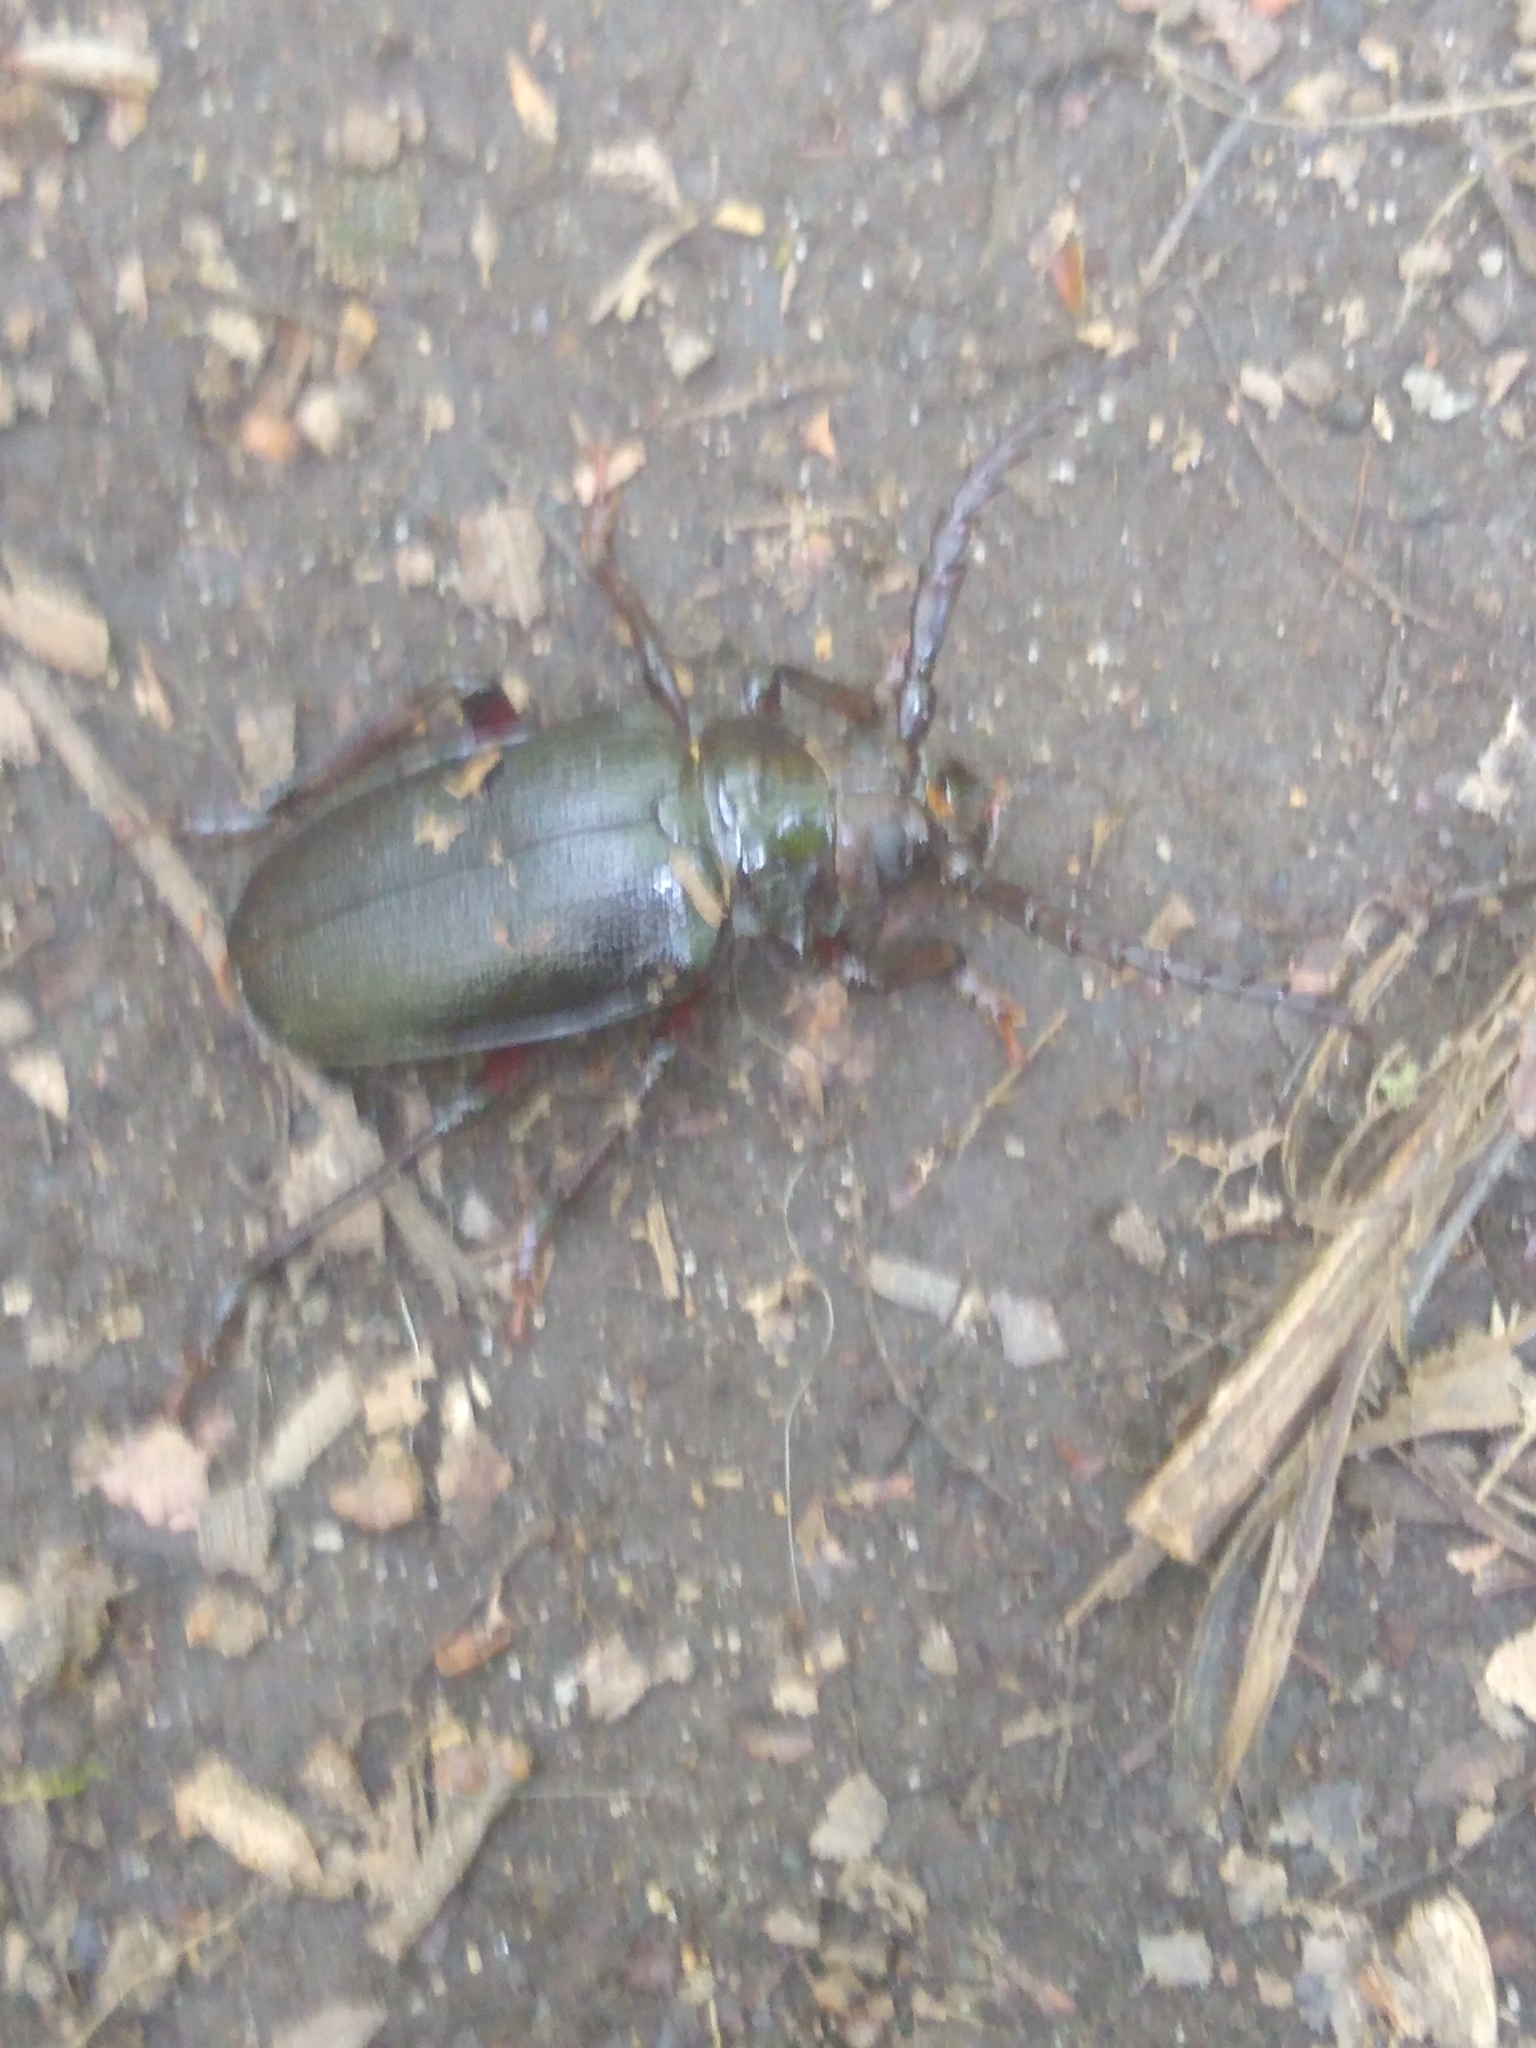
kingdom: Animalia
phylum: Arthropoda
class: Insecta
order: Coleoptera
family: Cerambycidae
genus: Prionus
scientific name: Prionus laticollis
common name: Broad necked prionus
